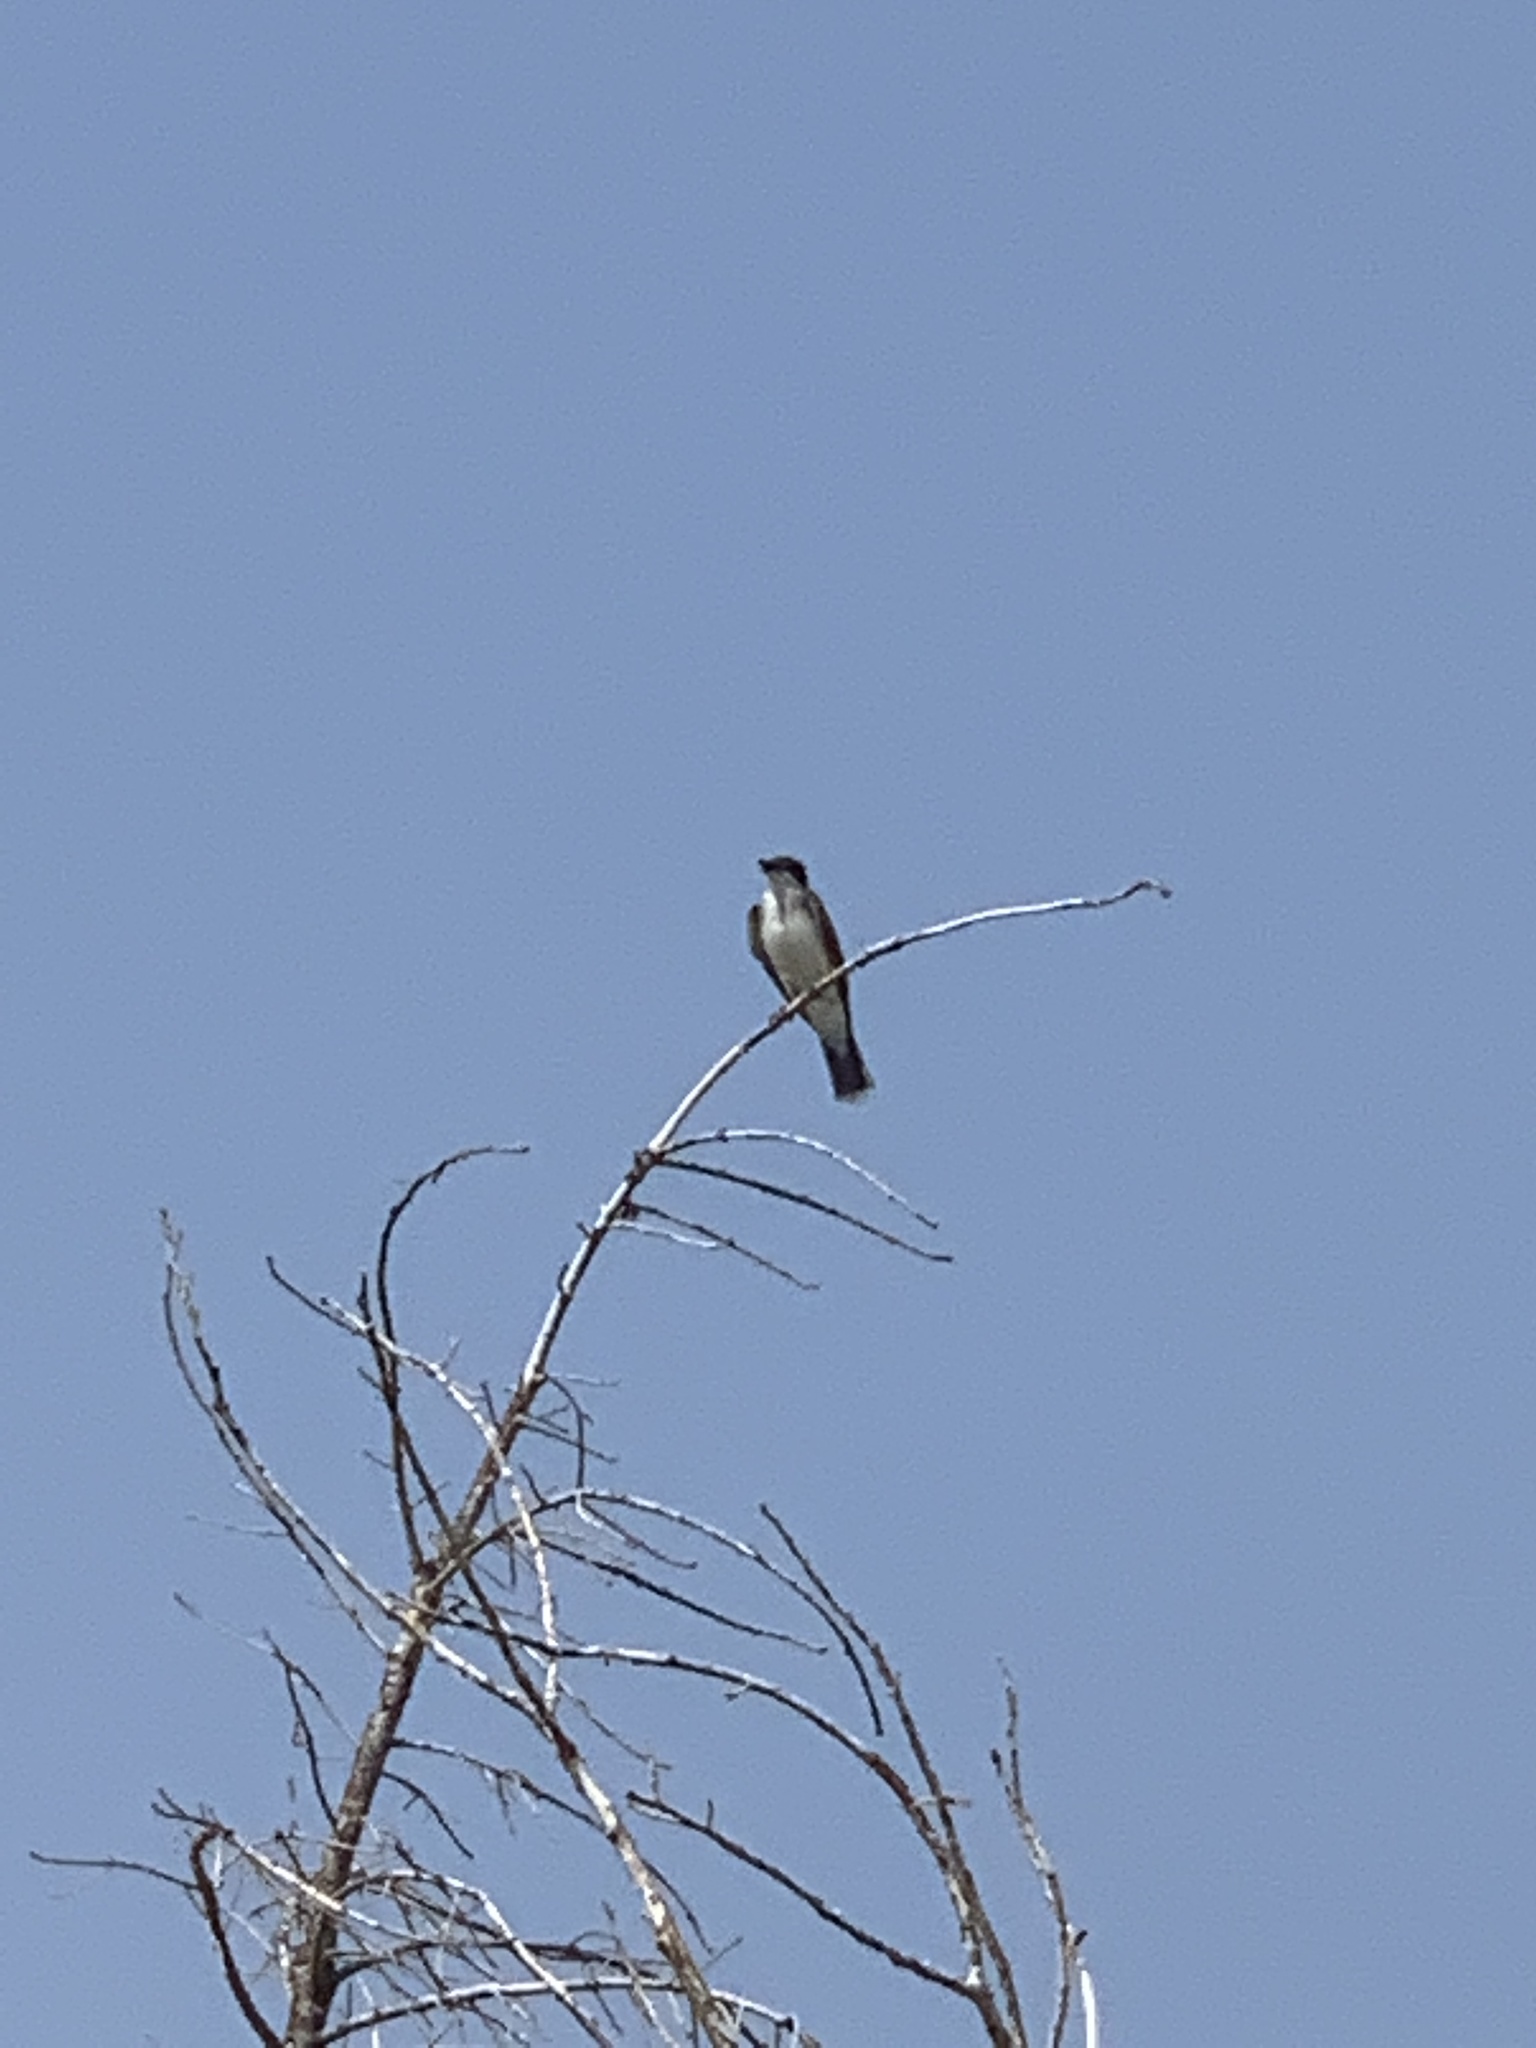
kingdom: Animalia
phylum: Chordata
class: Aves
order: Passeriformes
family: Tyrannidae
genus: Tyrannus
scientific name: Tyrannus tyrannus
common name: Eastern kingbird
